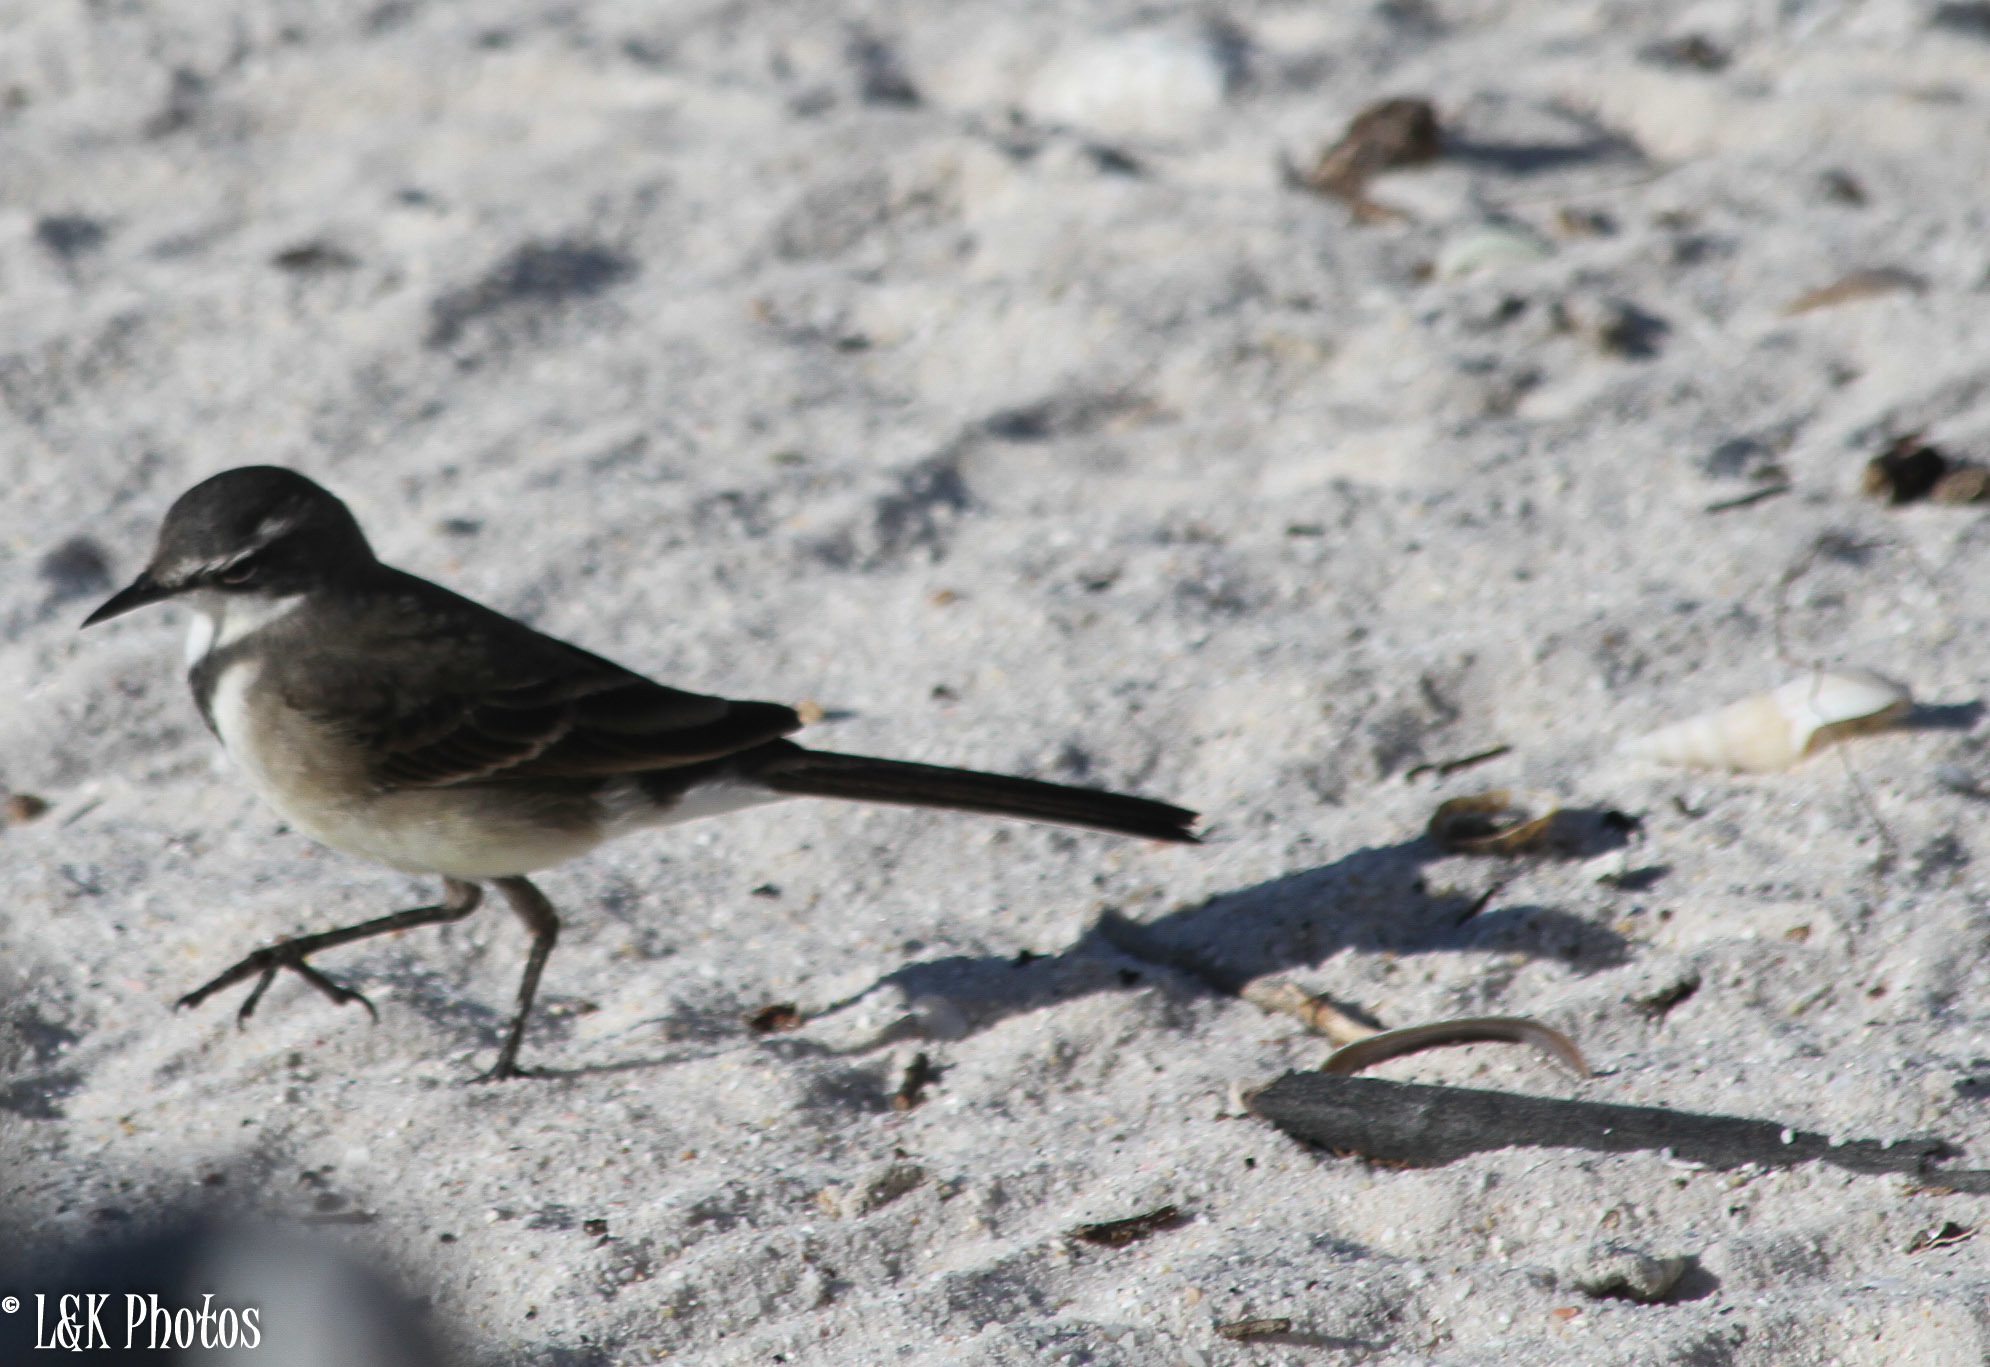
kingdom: Animalia
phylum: Chordata
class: Aves
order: Passeriformes
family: Motacillidae
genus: Motacilla
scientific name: Motacilla capensis
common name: Cape wagtail
